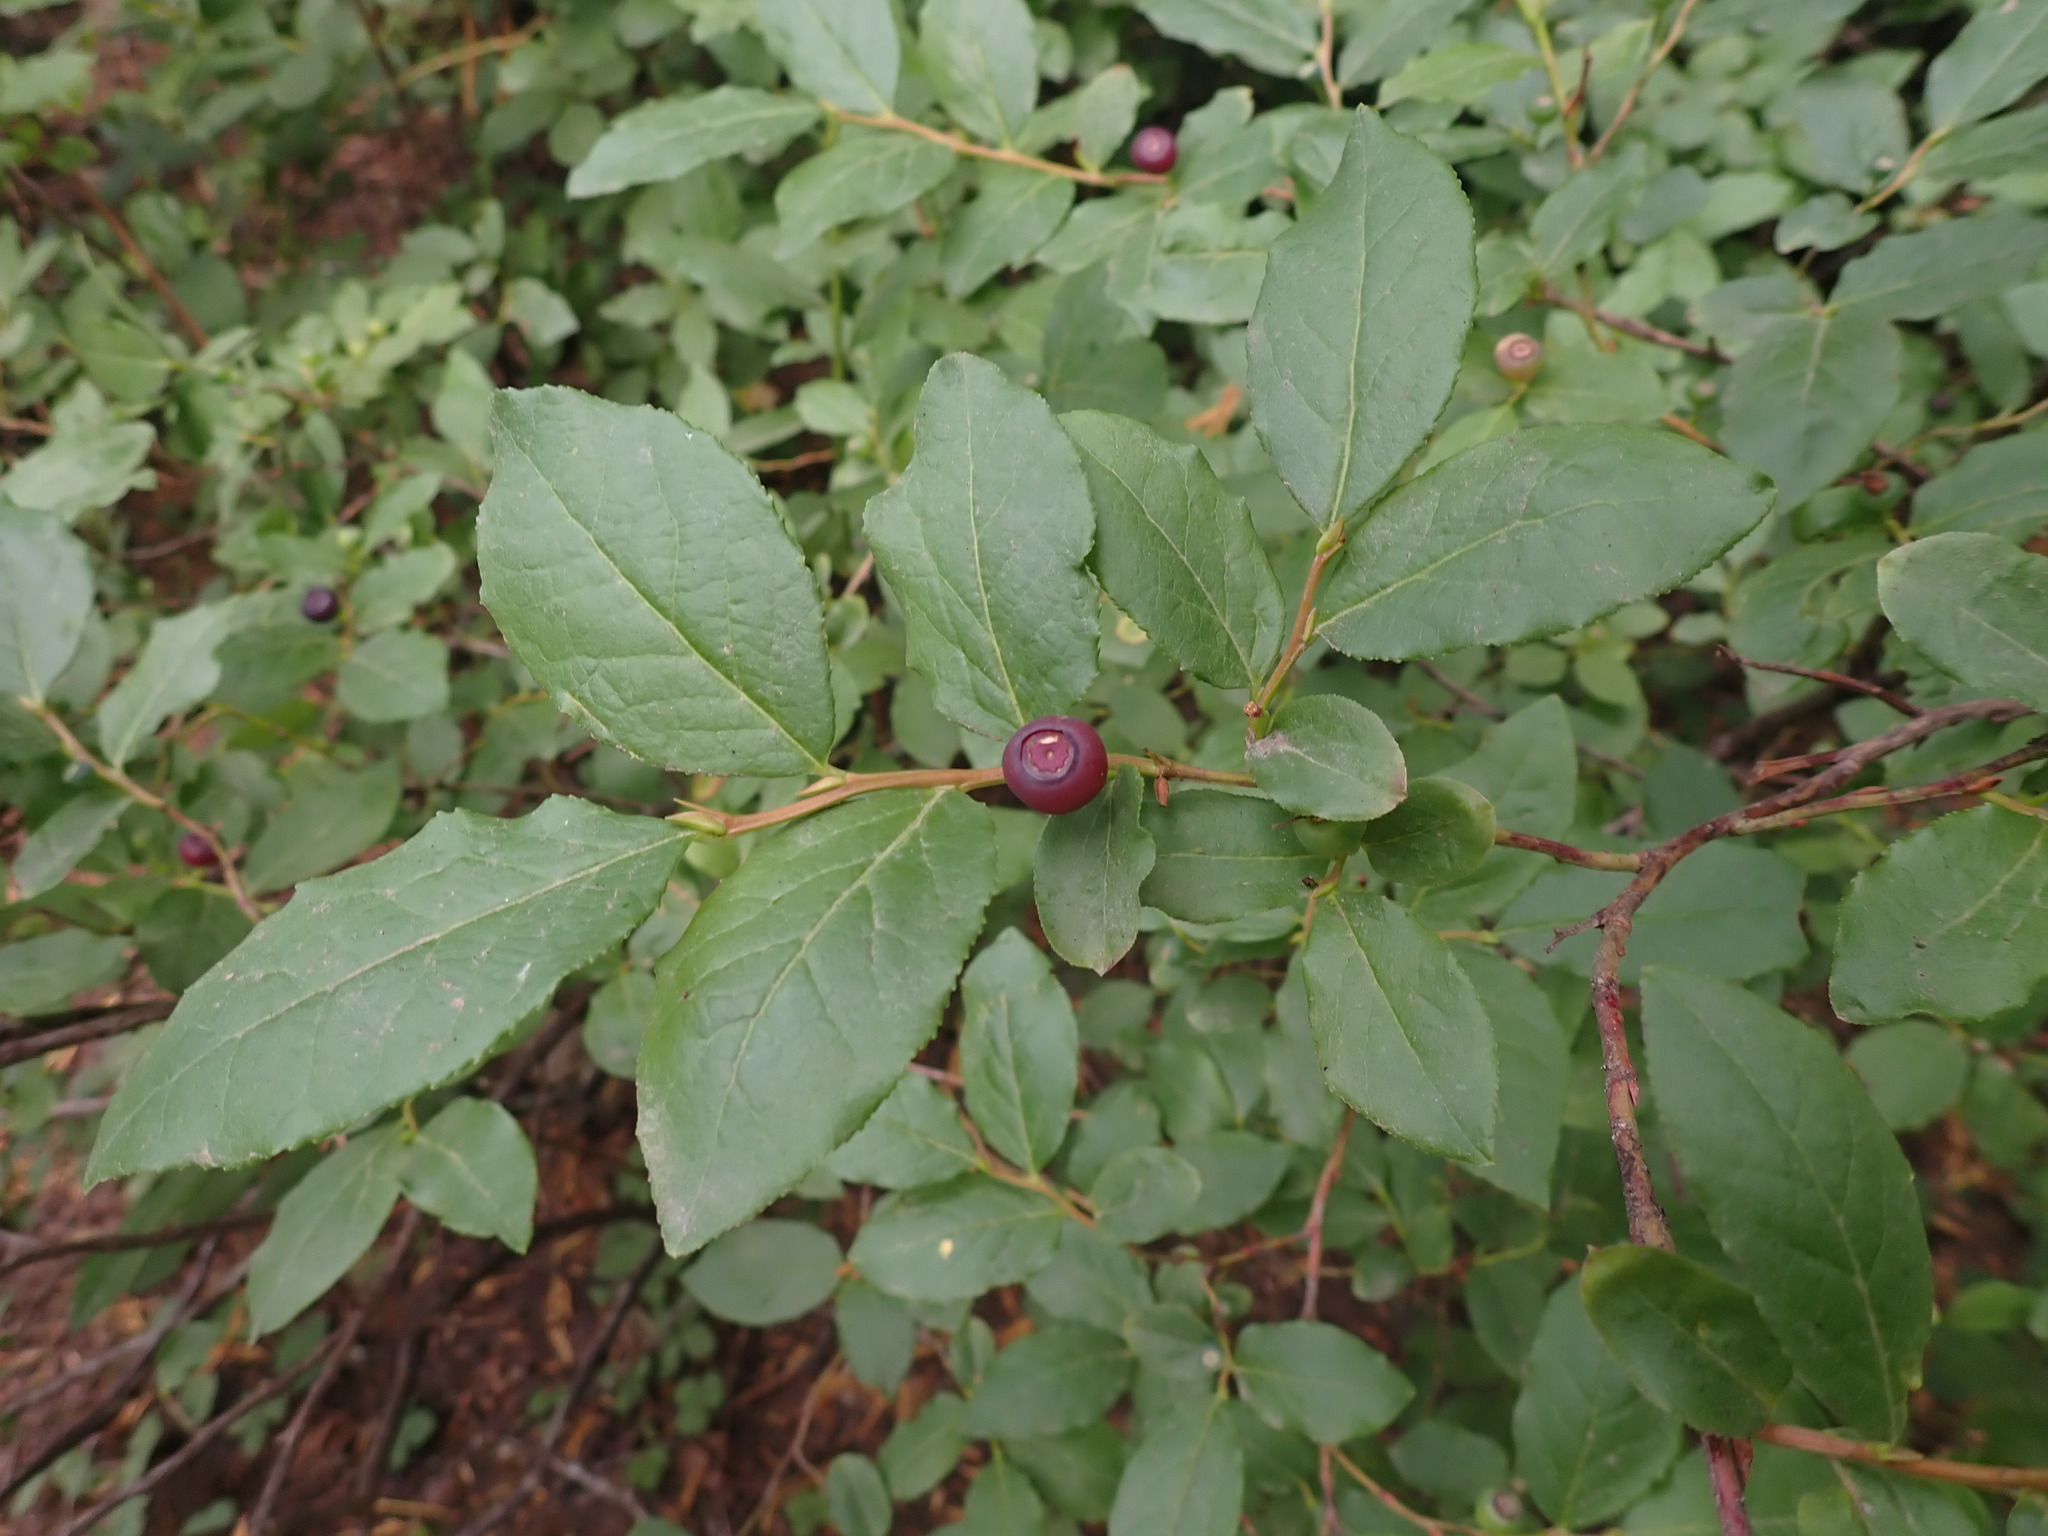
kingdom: Plantae
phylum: Tracheophyta
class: Magnoliopsida
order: Ericales
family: Ericaceae
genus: Vaccinium
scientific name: Vaccinium membranaceum
